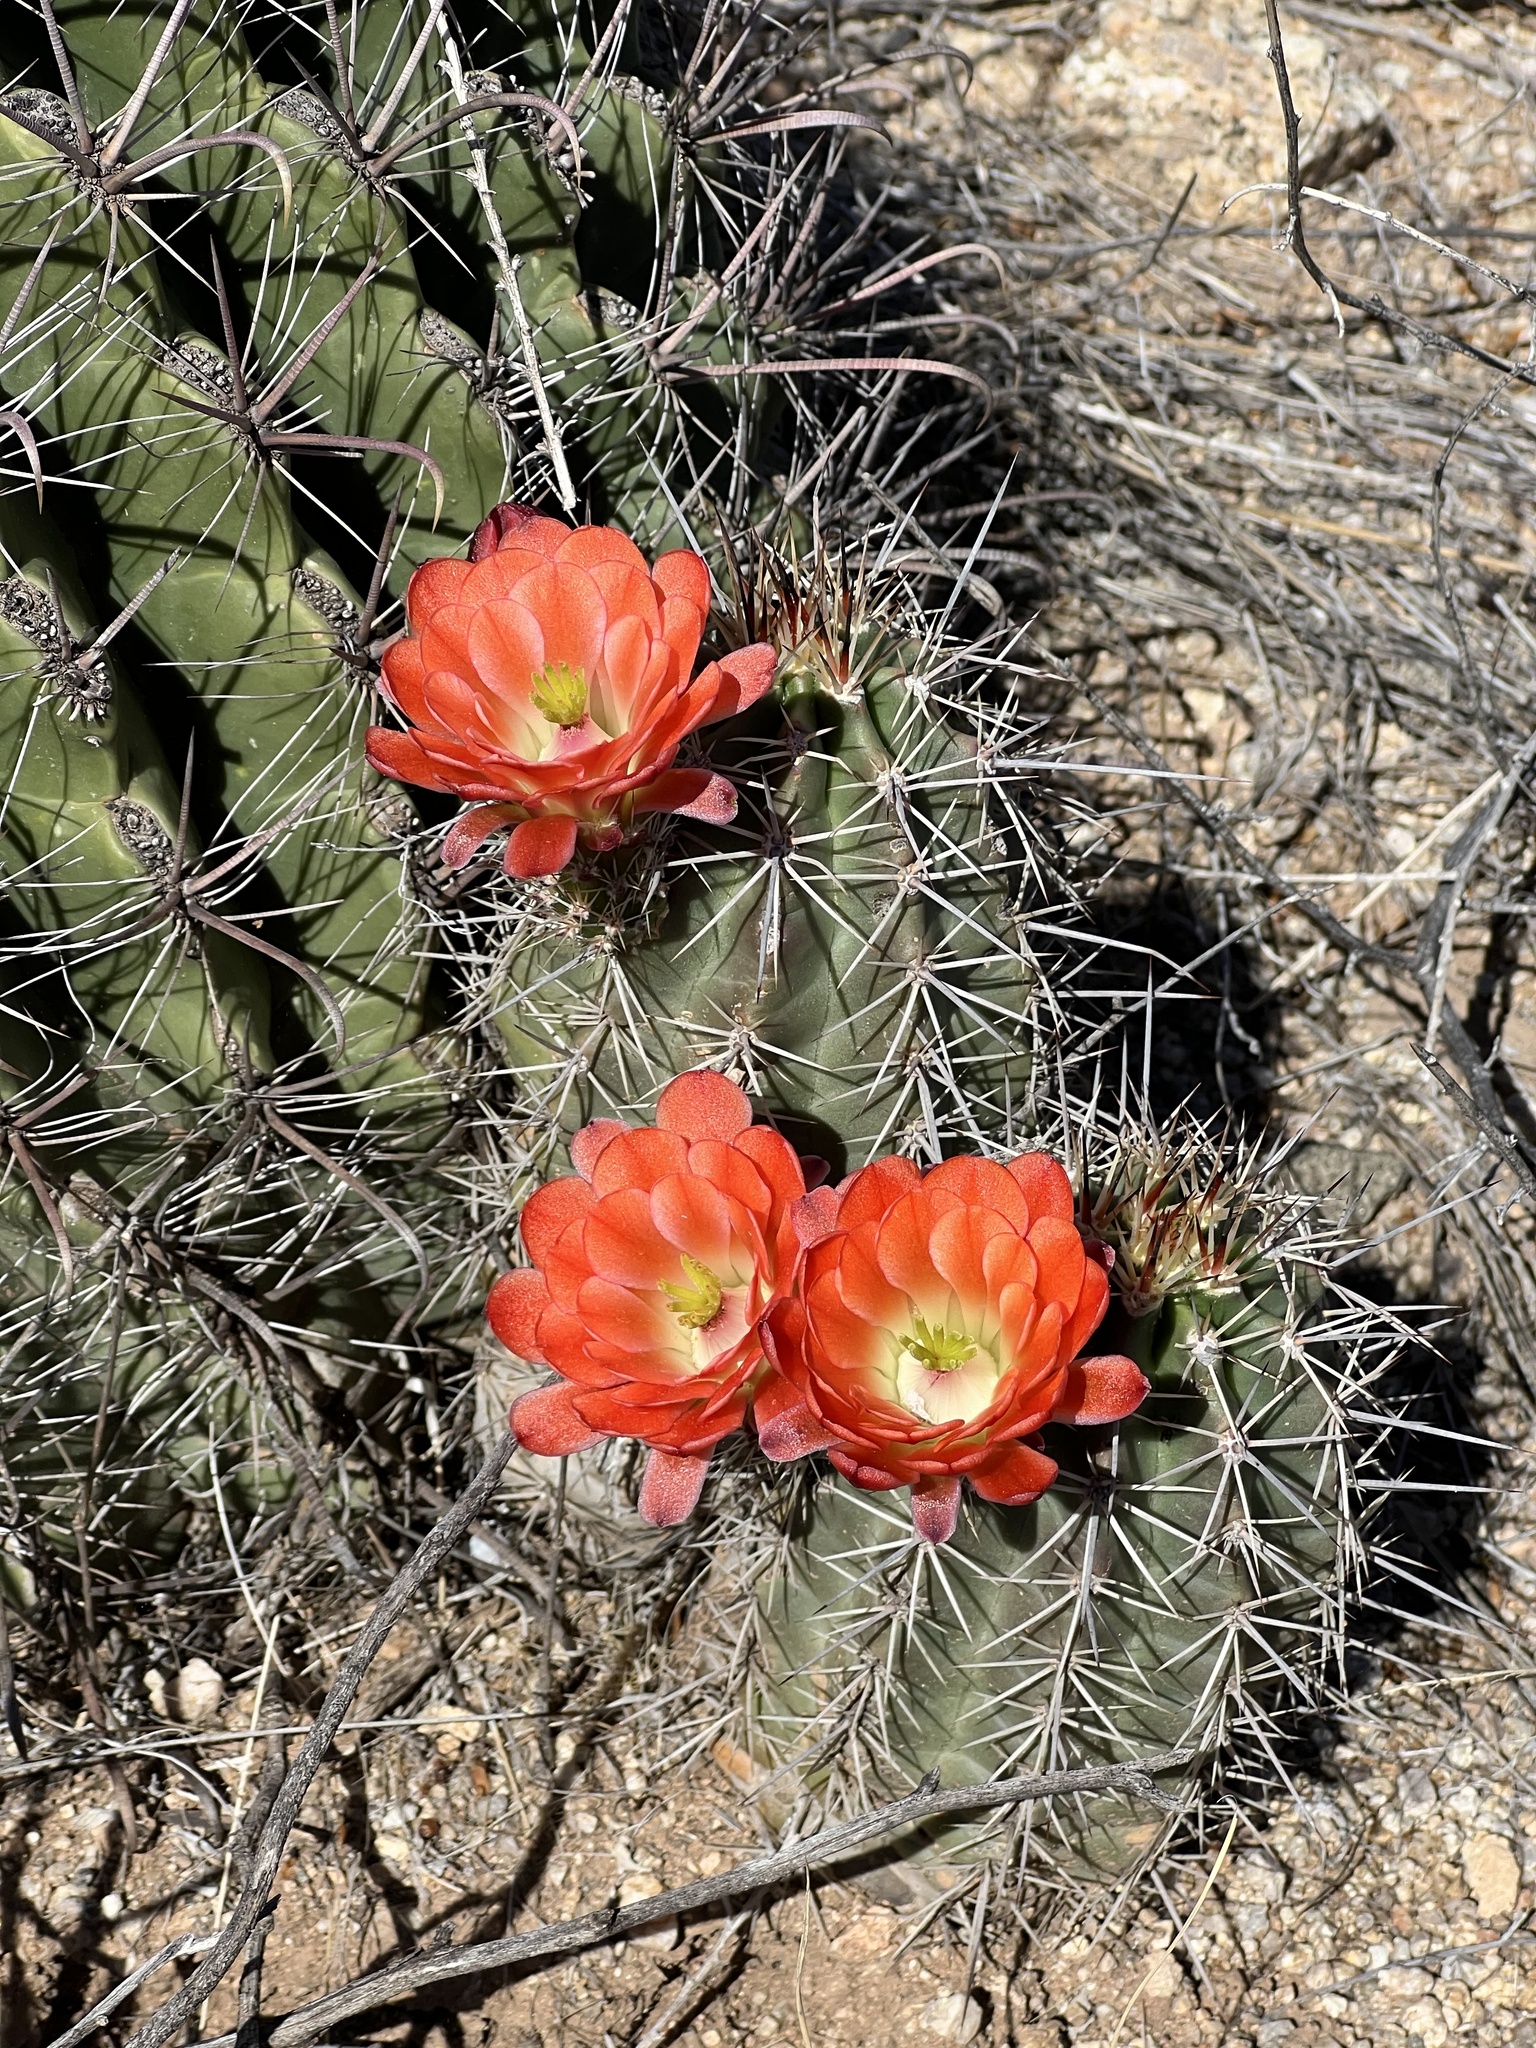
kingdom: Plantae
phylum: Tracheophyta
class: Magnoliopsida
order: Caryophyllales
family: Cactaceae
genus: Echinocereus
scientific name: Echinocereus coccineus
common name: Scarlet hedgehog cactus
